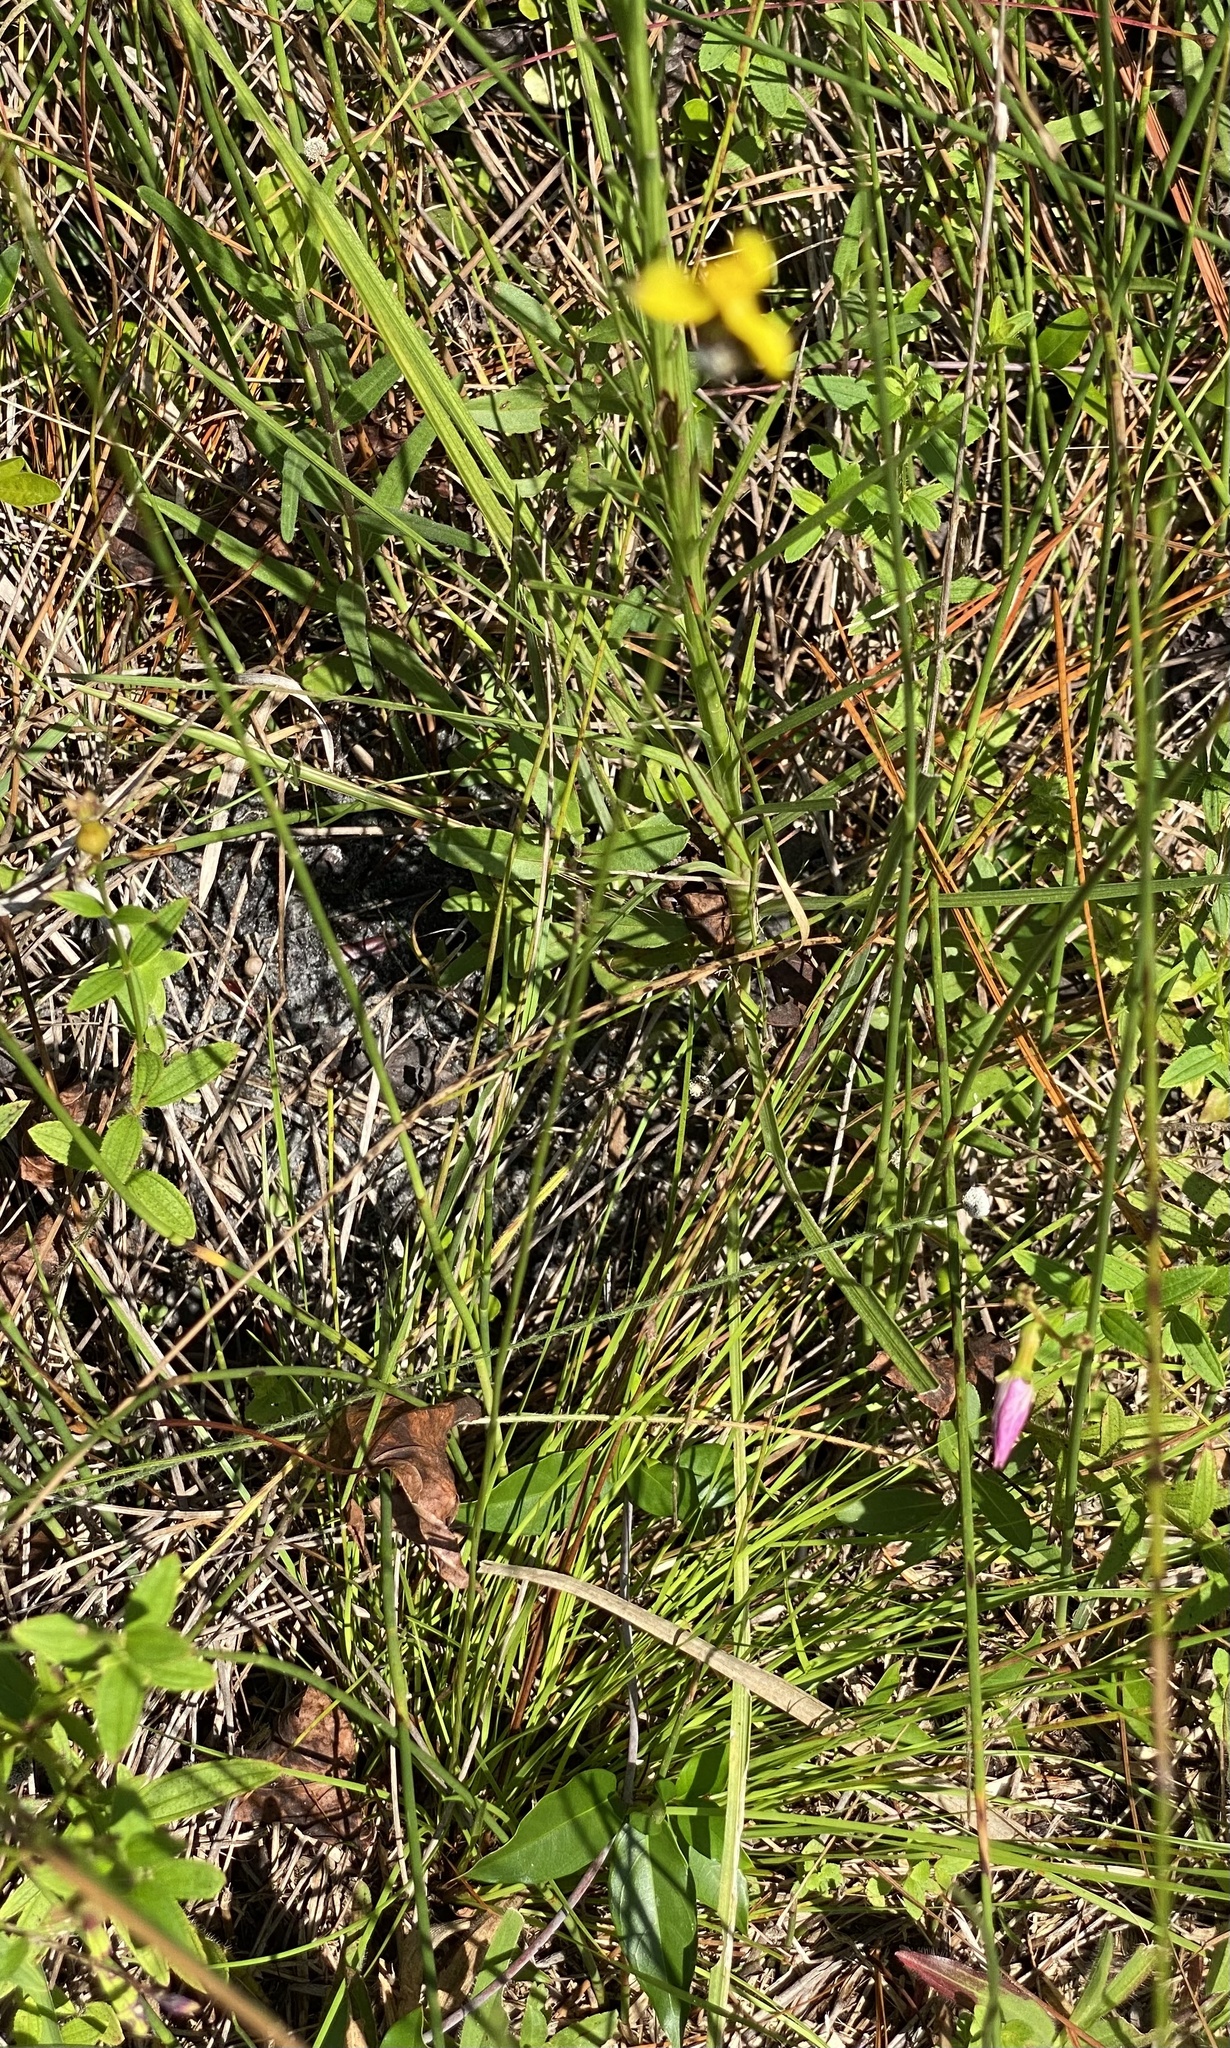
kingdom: Plantae
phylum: Tracheophyta
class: Liliopsida
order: Poales
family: Xyridaceae
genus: Xyris
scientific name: Xyris elliottii
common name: Elliot's yelloweyed grass
